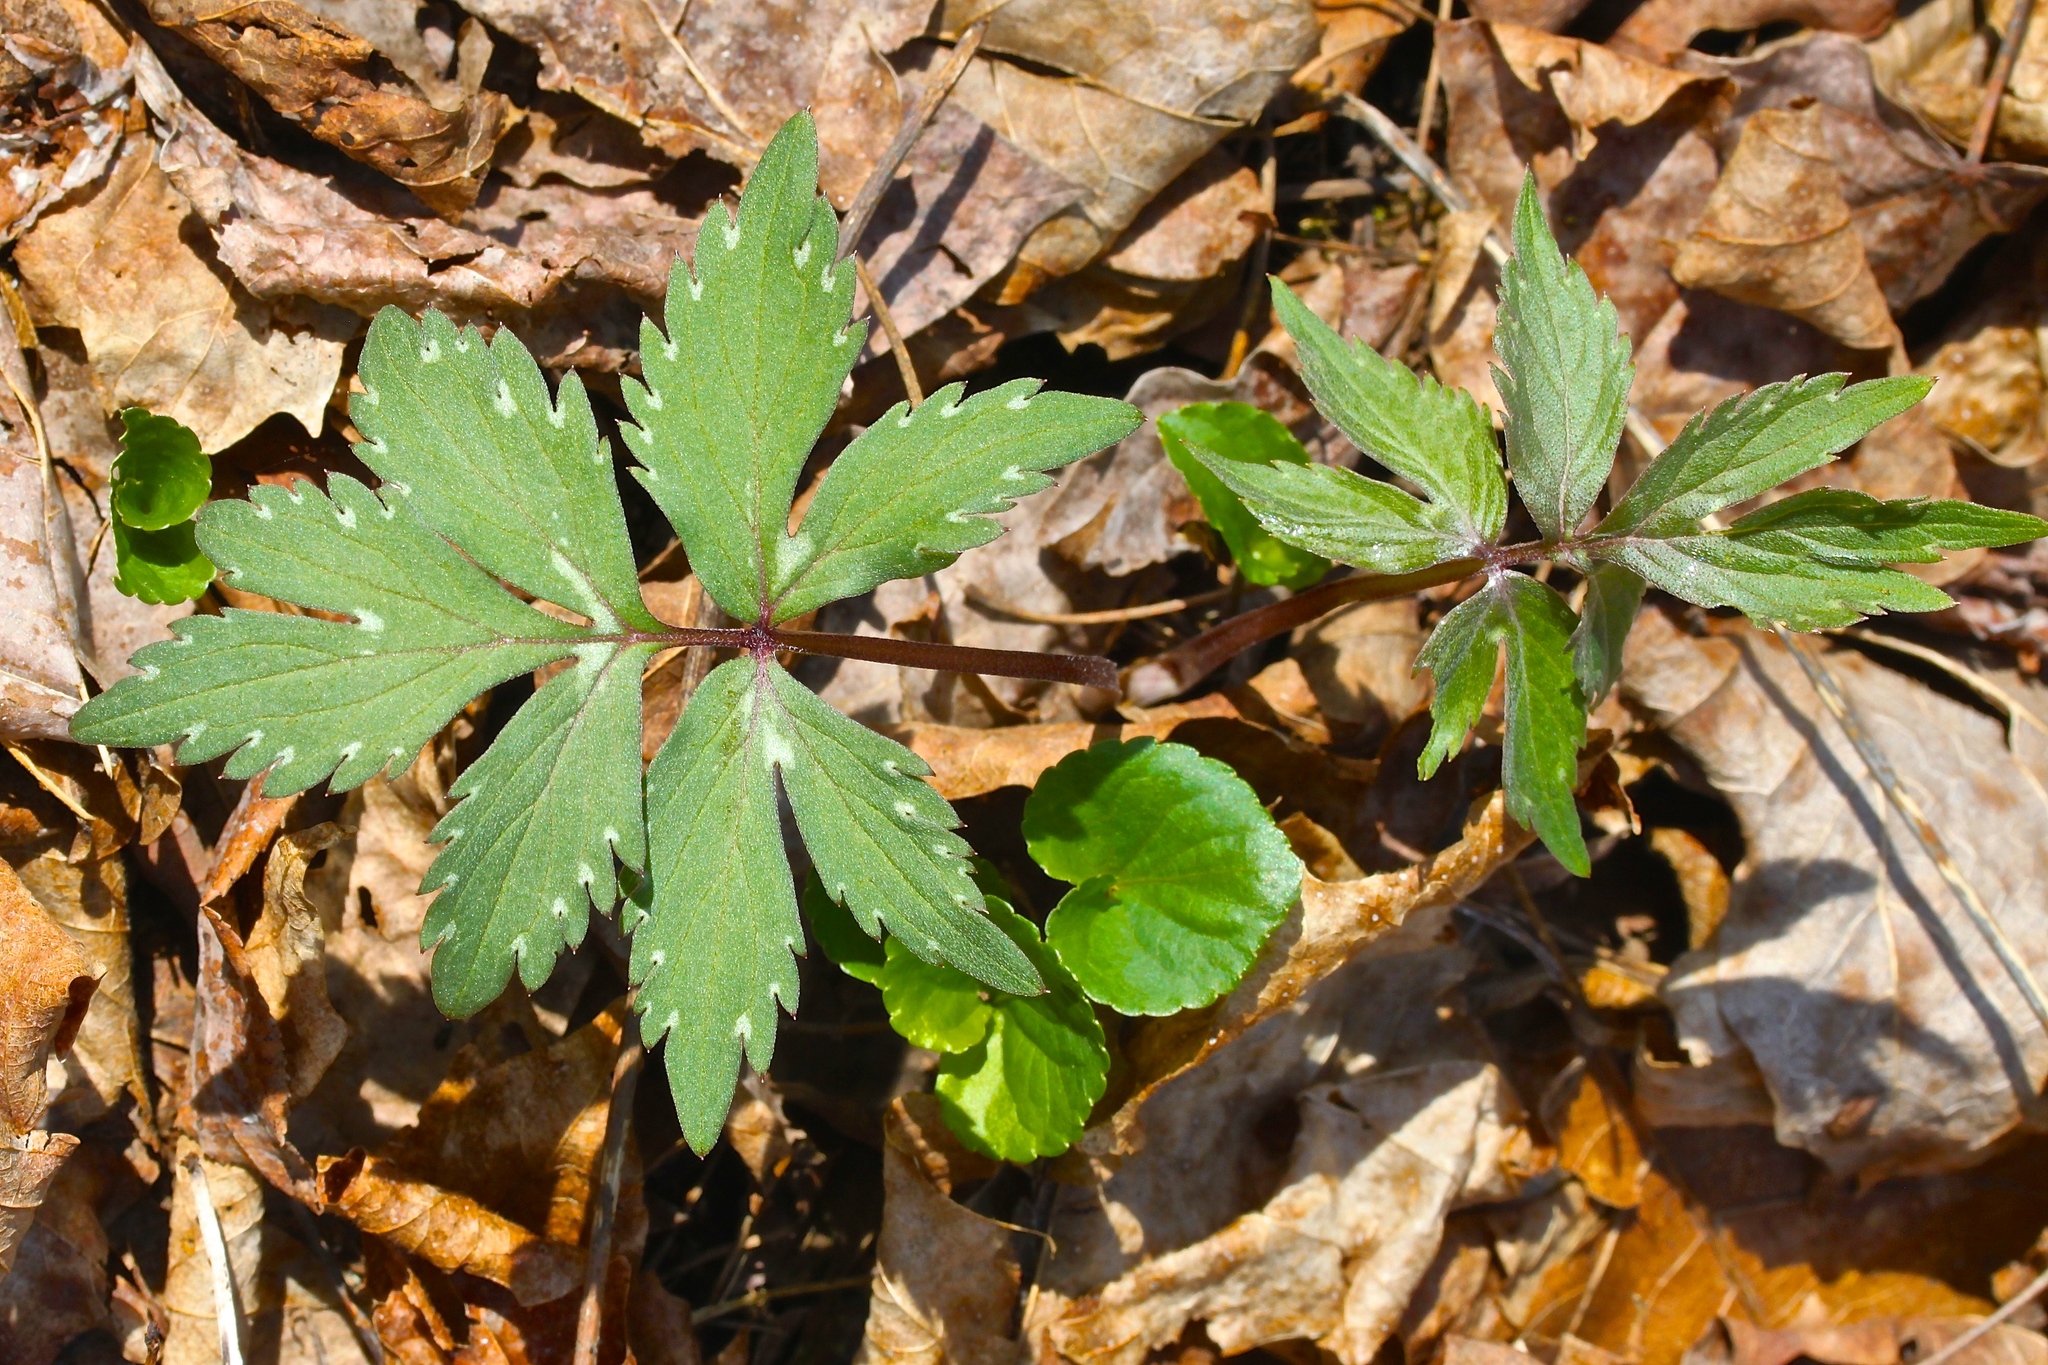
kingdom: Plantae
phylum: Tracheophyta
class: Magnoliopsida
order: Boraginales
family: Hydrophyllaceae
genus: Hydrophyllum
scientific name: Hydrophyllum virginianum
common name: Virginia waterleaf
